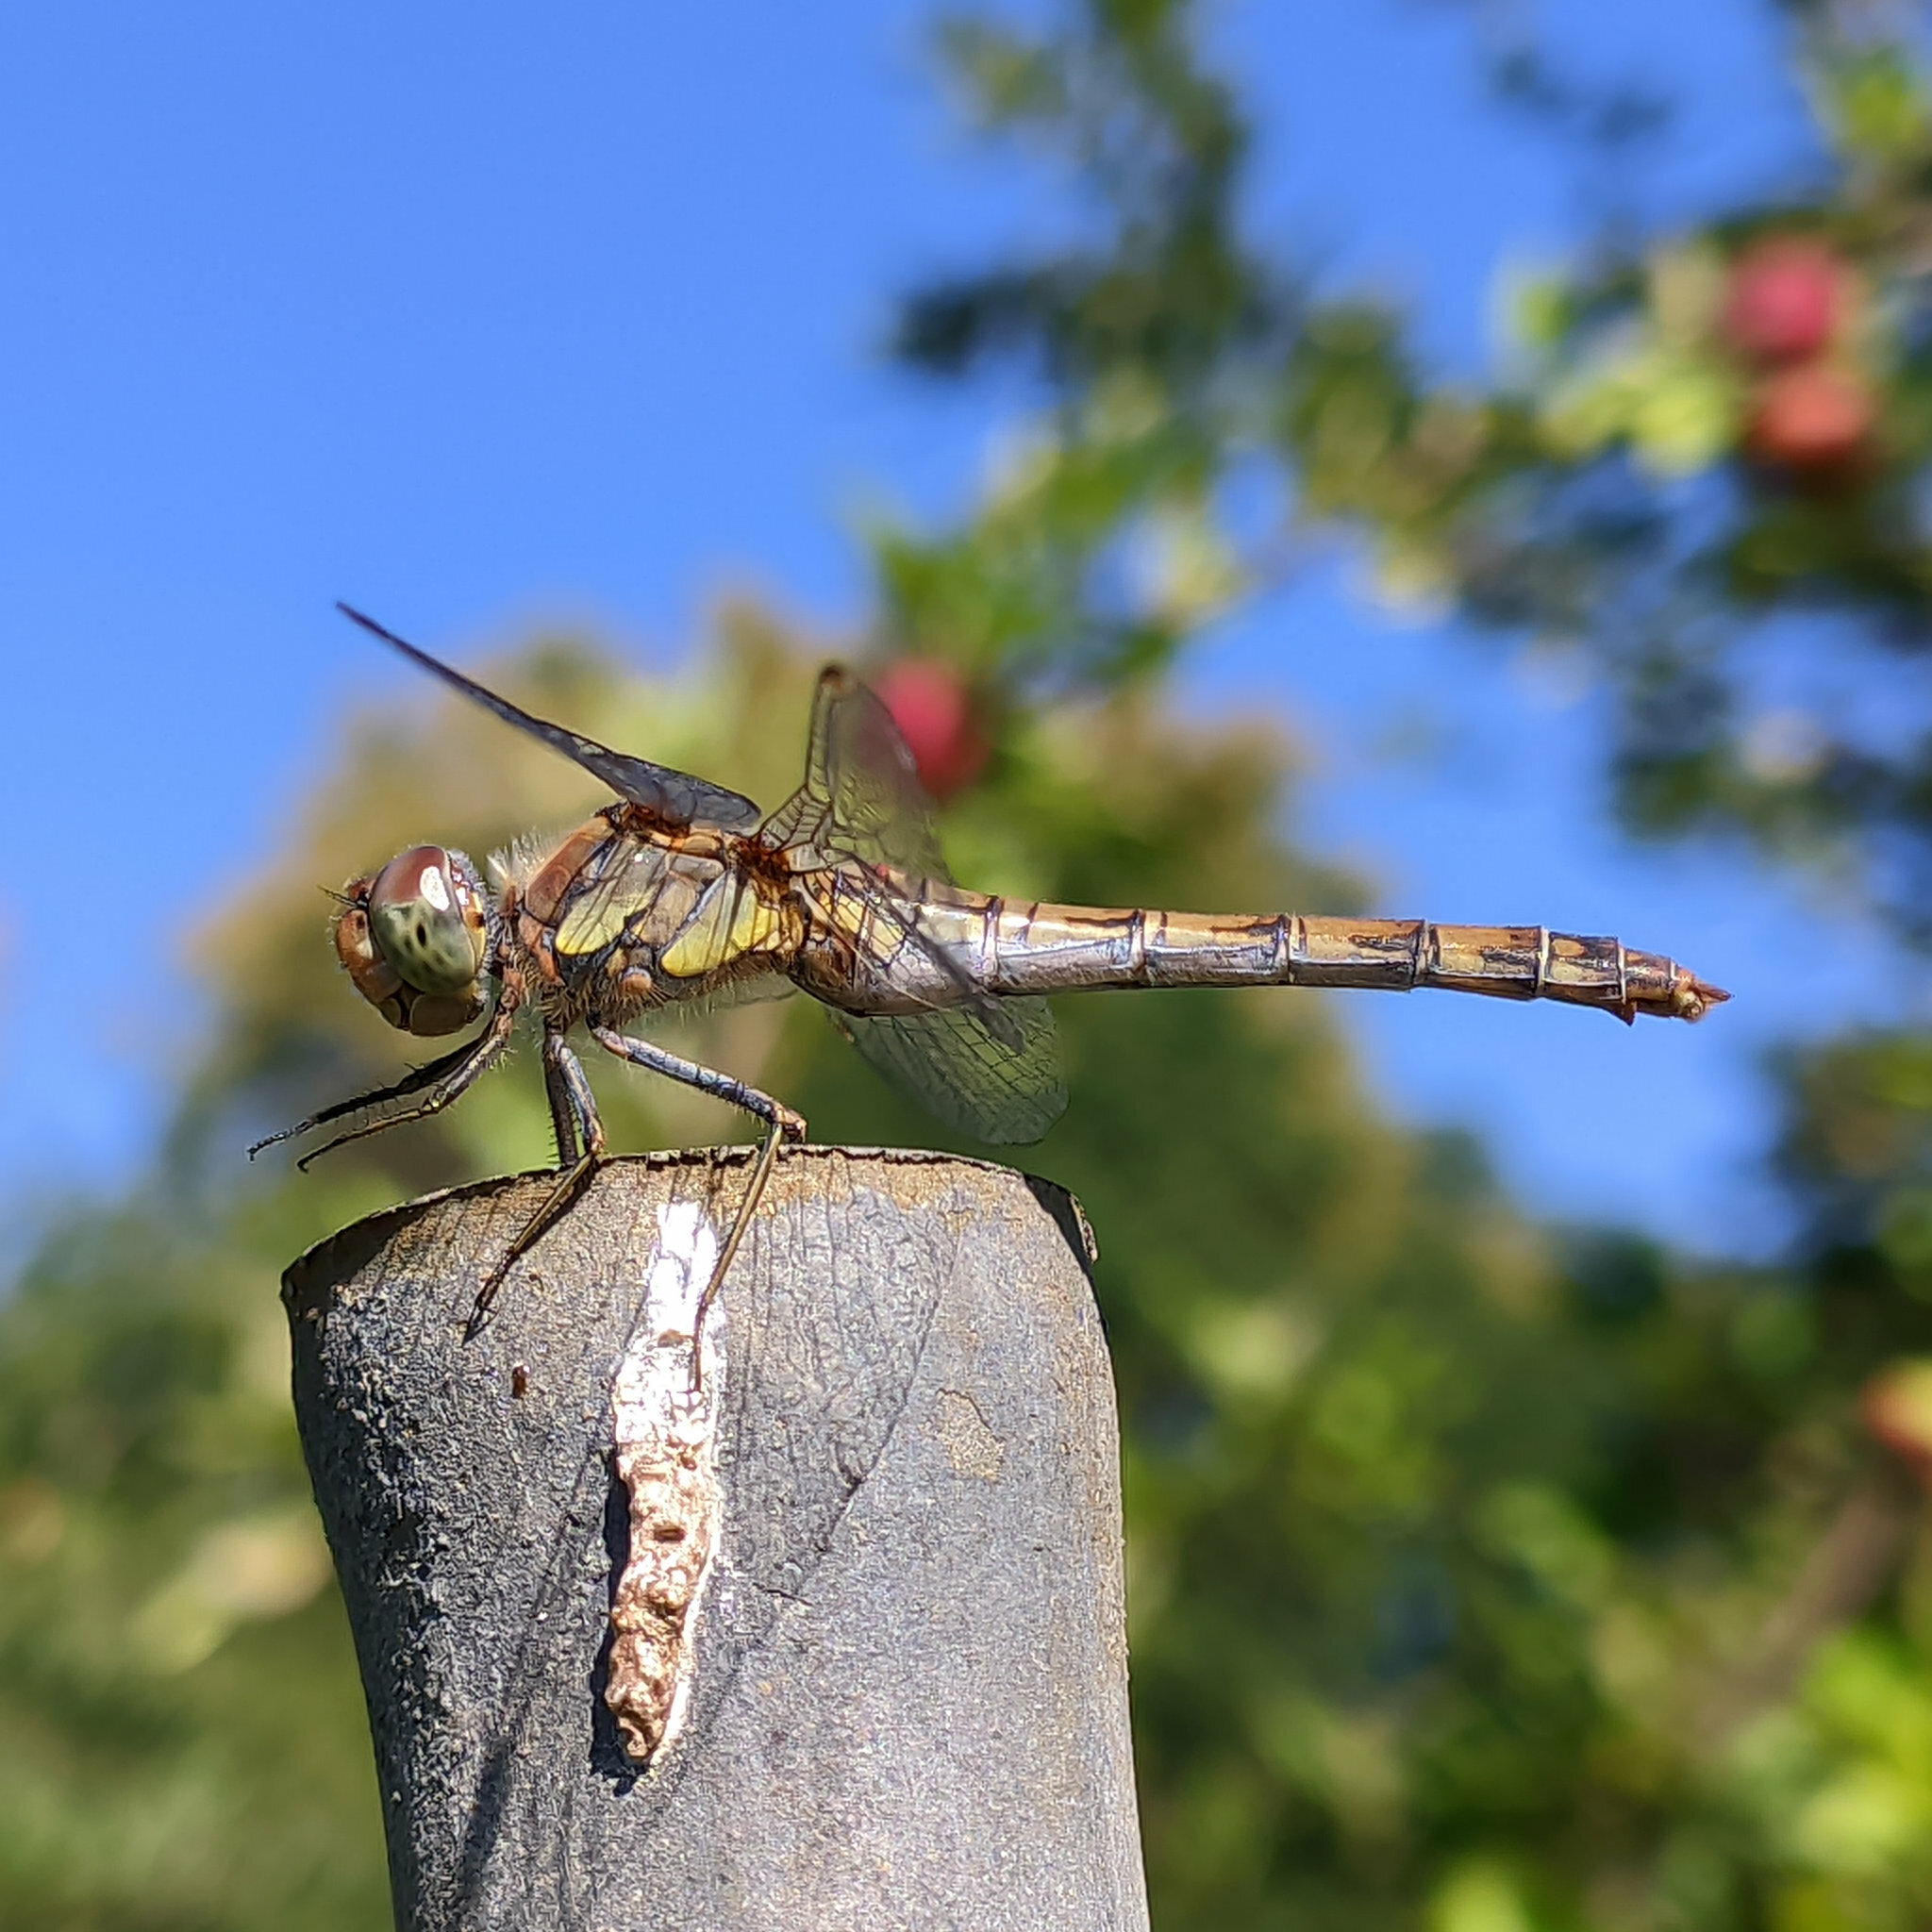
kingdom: Animalia
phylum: Arthropoda
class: Insecta
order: Odonata
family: Libellulidae
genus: Sympetrum
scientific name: Sympetrum striolatum
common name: Common darter
